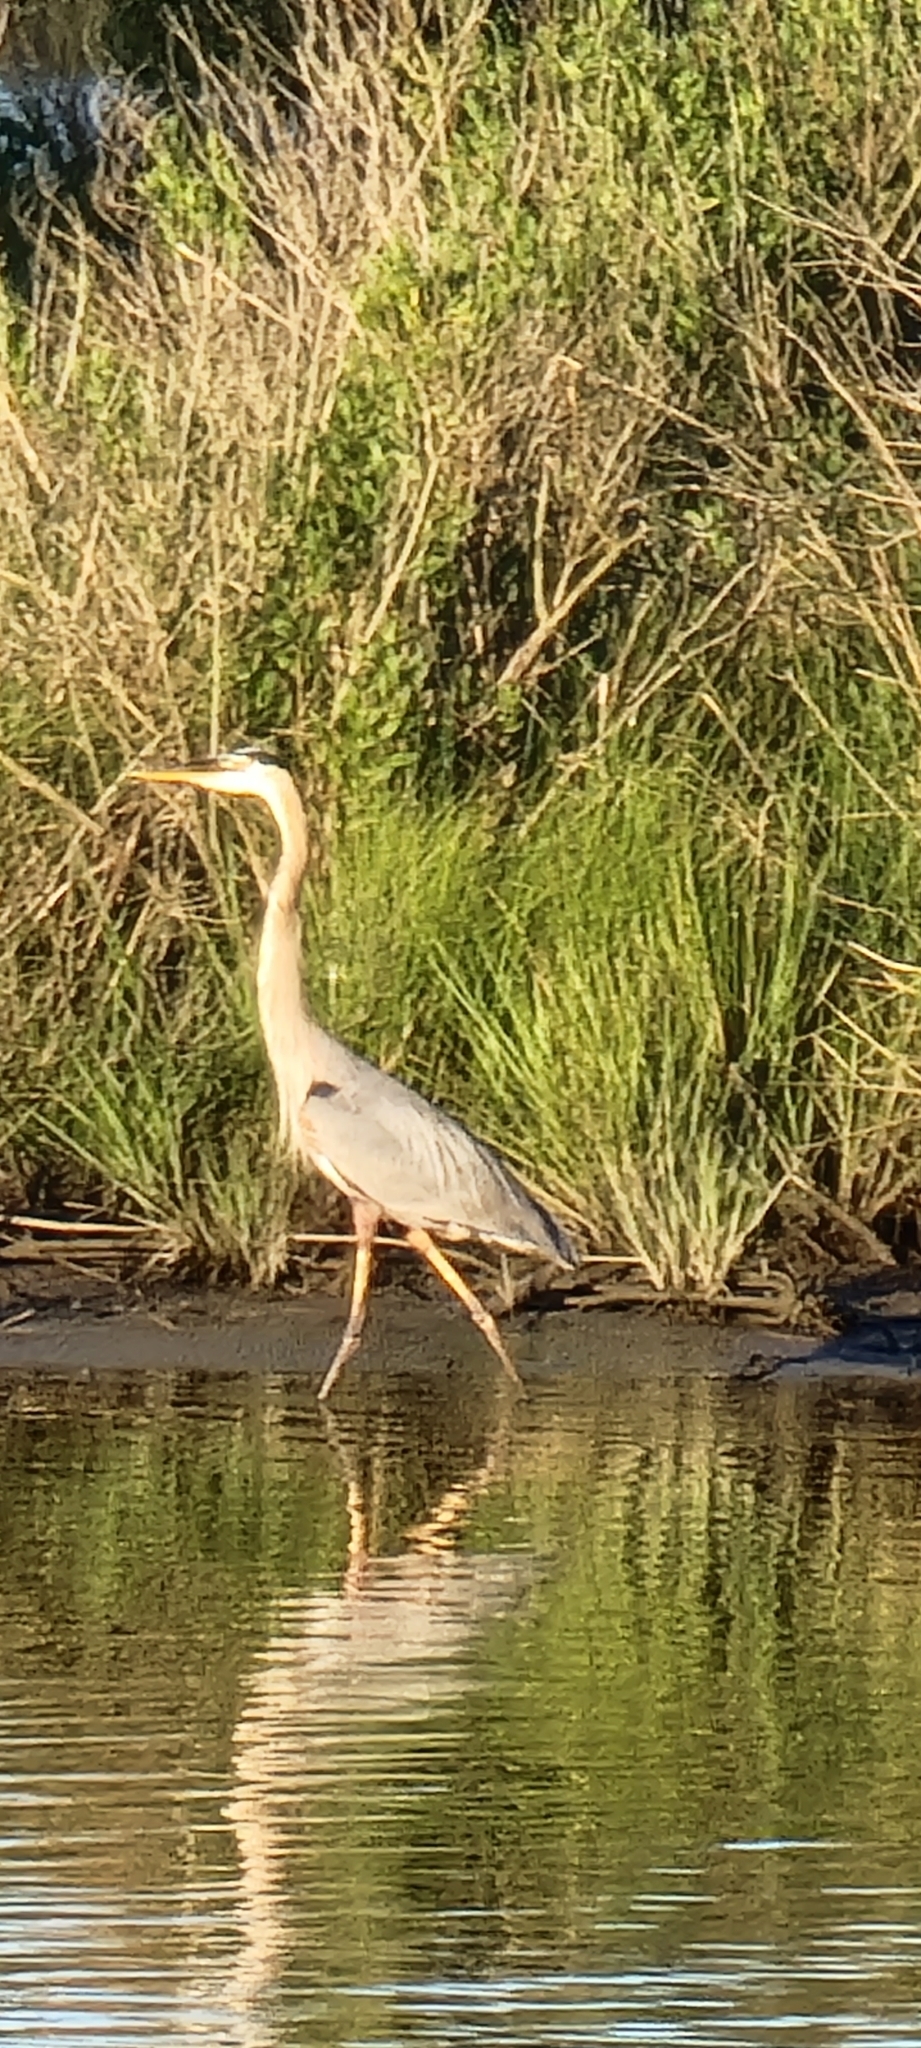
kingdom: Animalia
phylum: Chordata
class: Aves
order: Pelecaniformes
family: Ardeidae
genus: Ardea
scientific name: Ardea herodias
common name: Great blue heron
